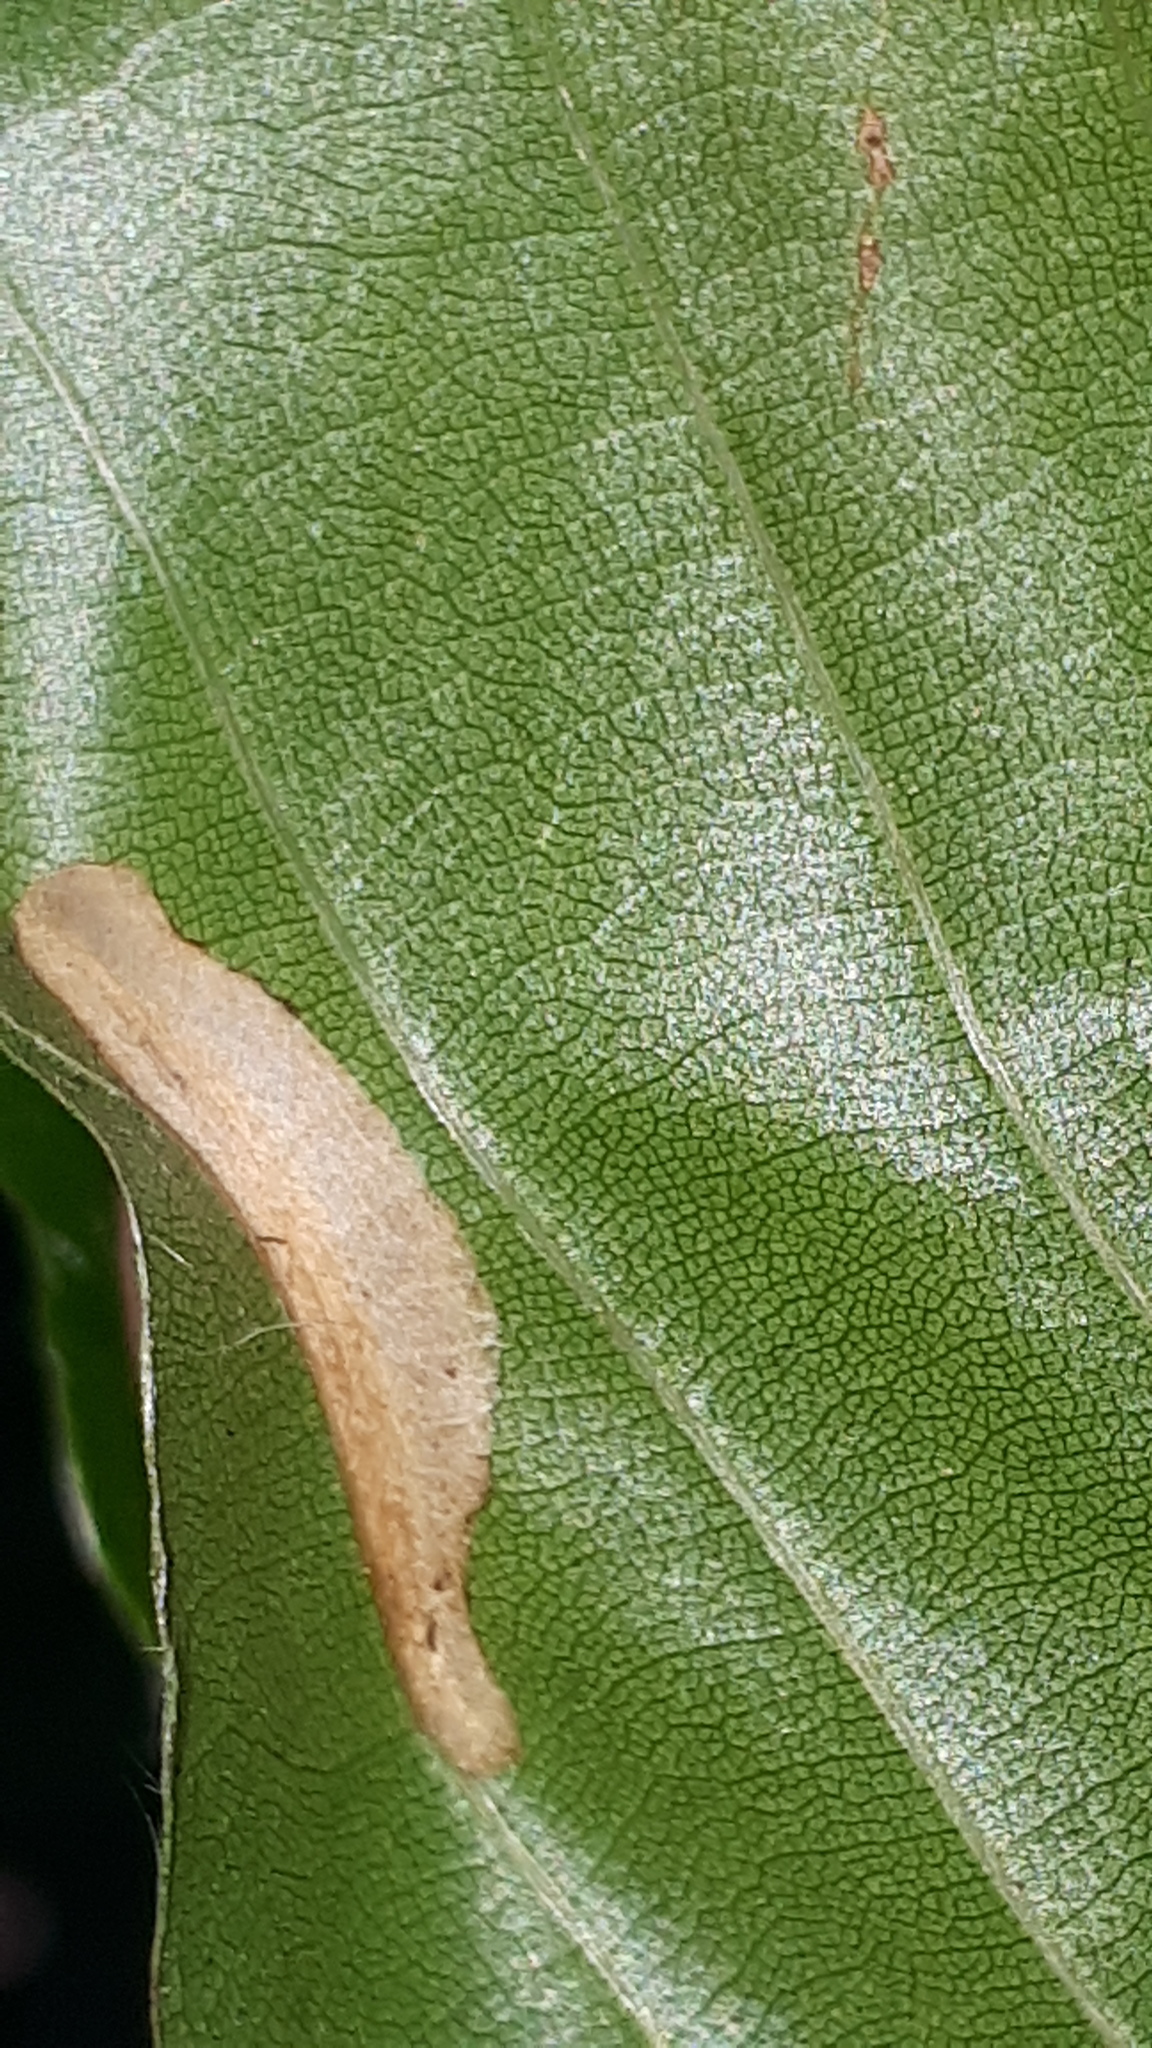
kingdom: Animalia
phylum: Arthropoda
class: Insecta
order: Lepidoptera
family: Gracillariidae
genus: Phyllonorycter
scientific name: Phyllonorycter maestingella
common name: Beech midget
